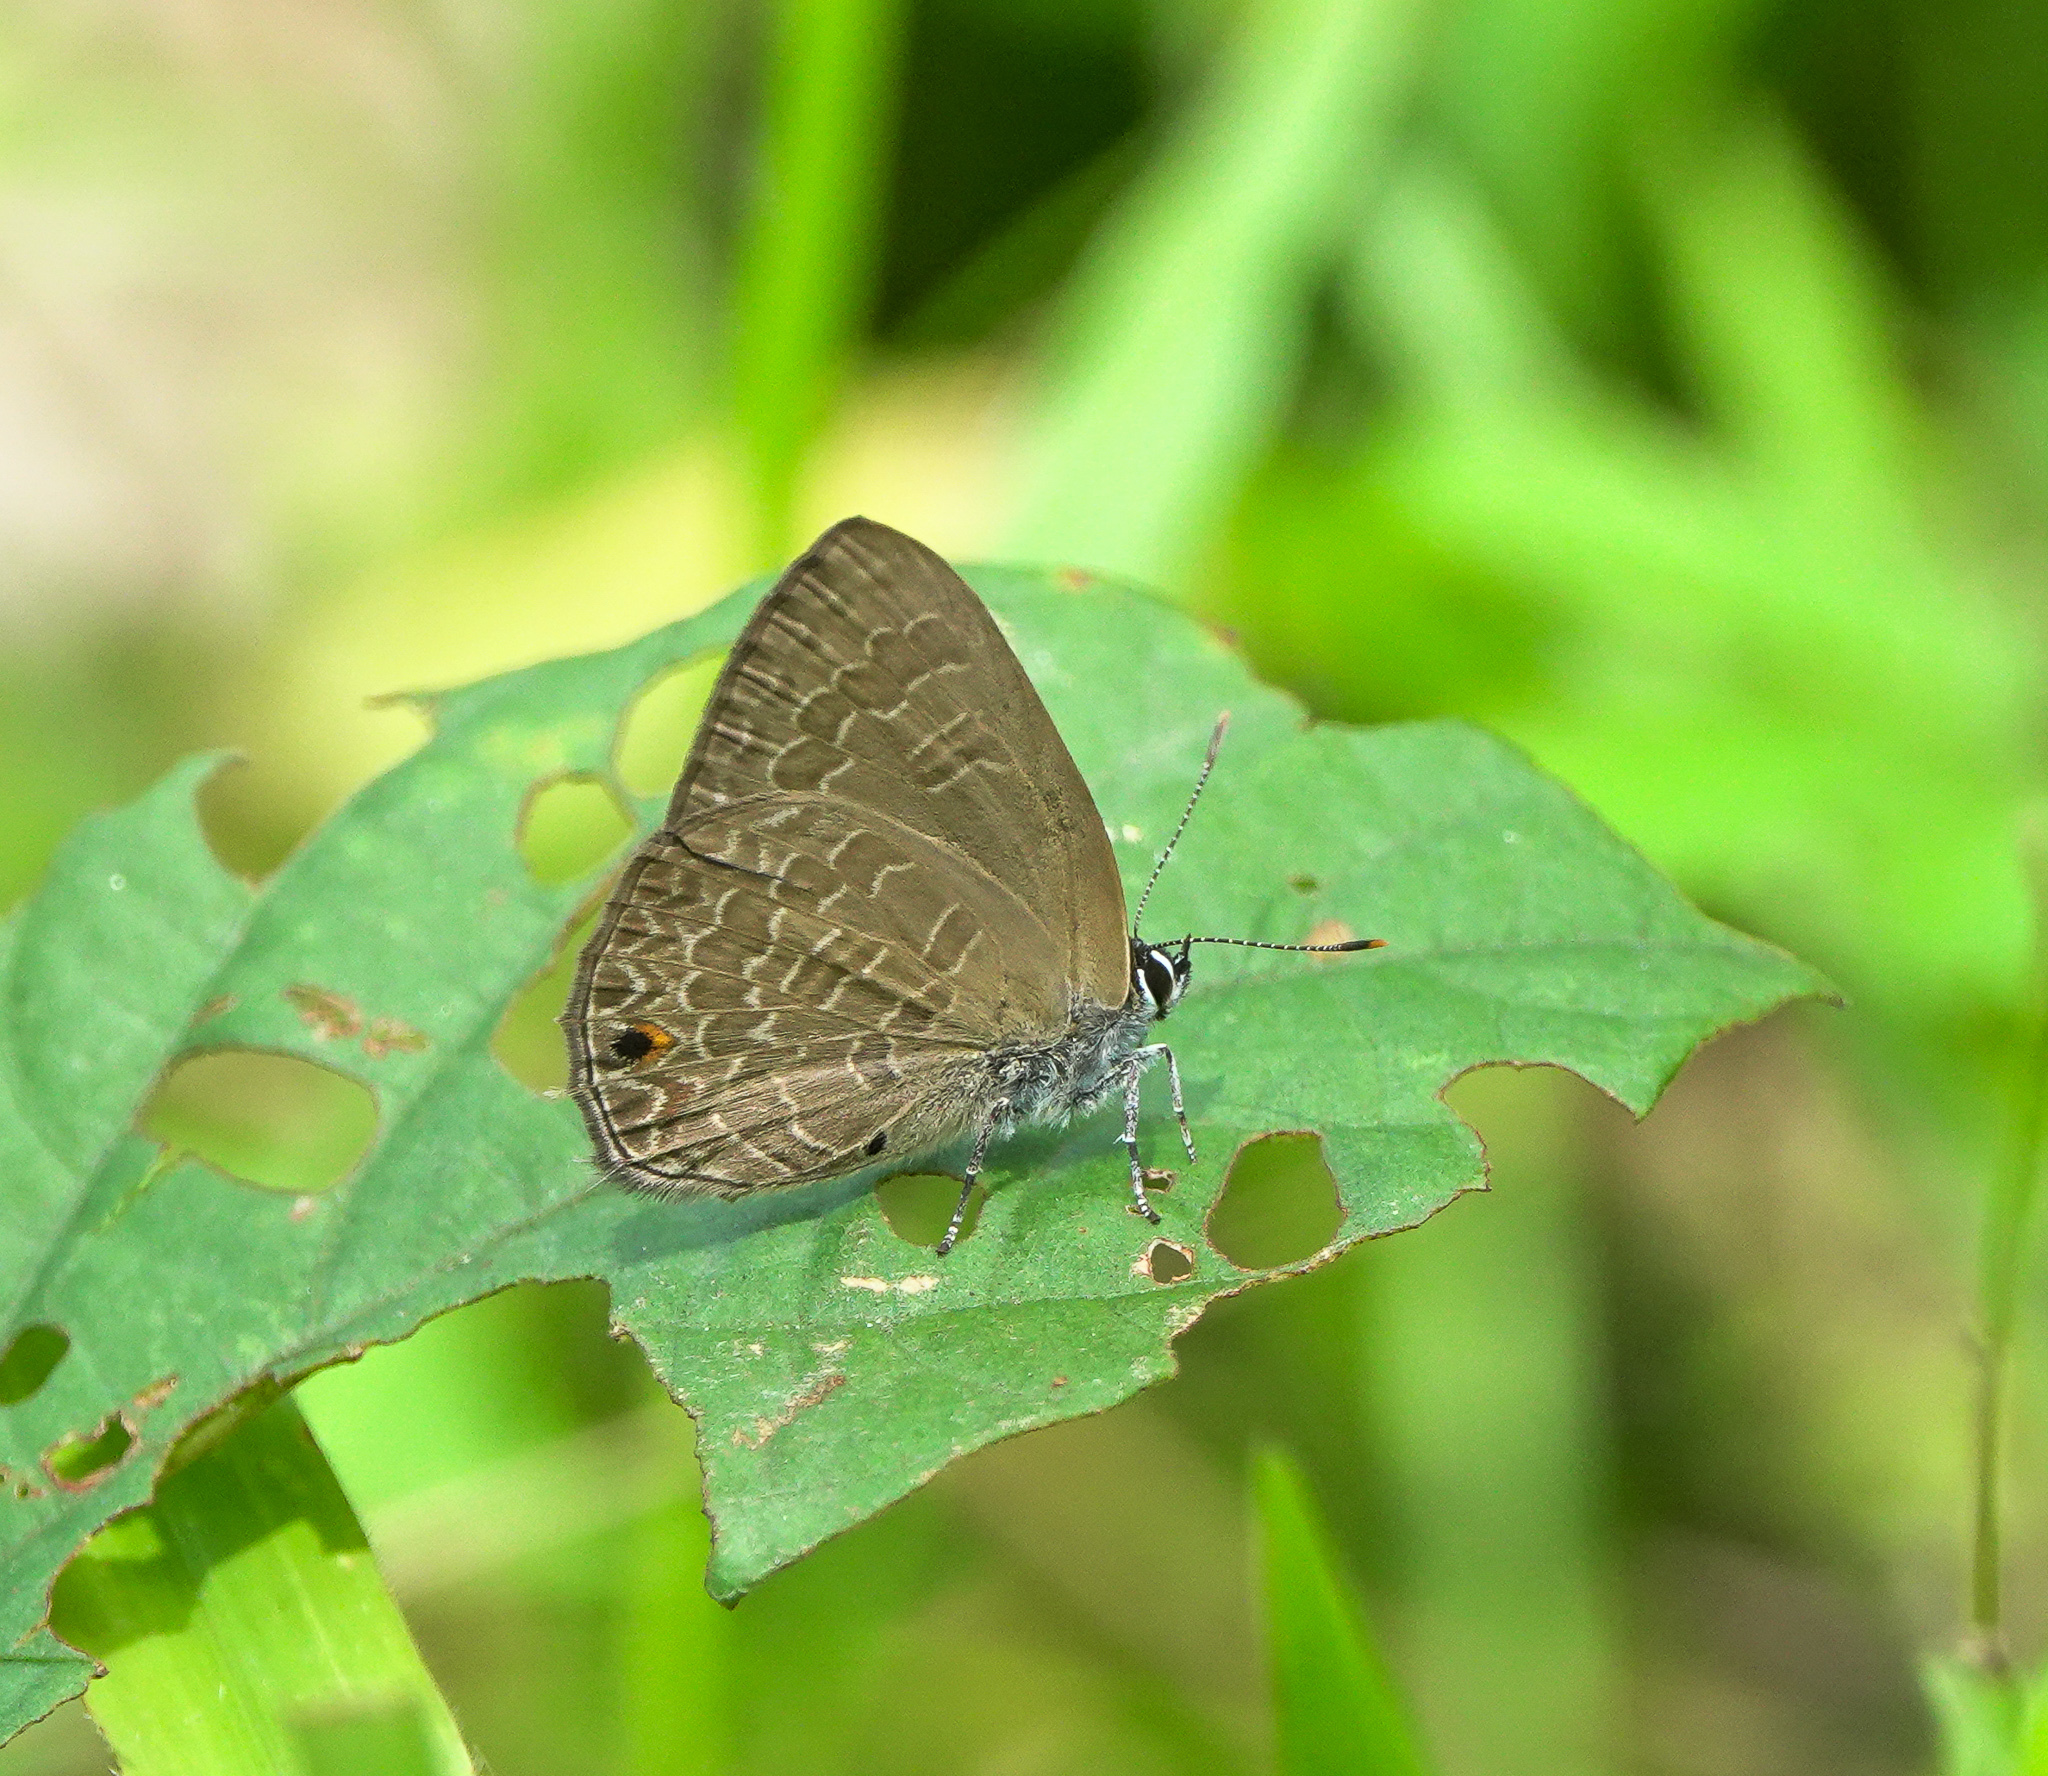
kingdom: Animalia
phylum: Arthropoda
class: Insecta
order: Lepidoptera
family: Lycaenidae
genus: Anthene
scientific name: Anthene emolus
